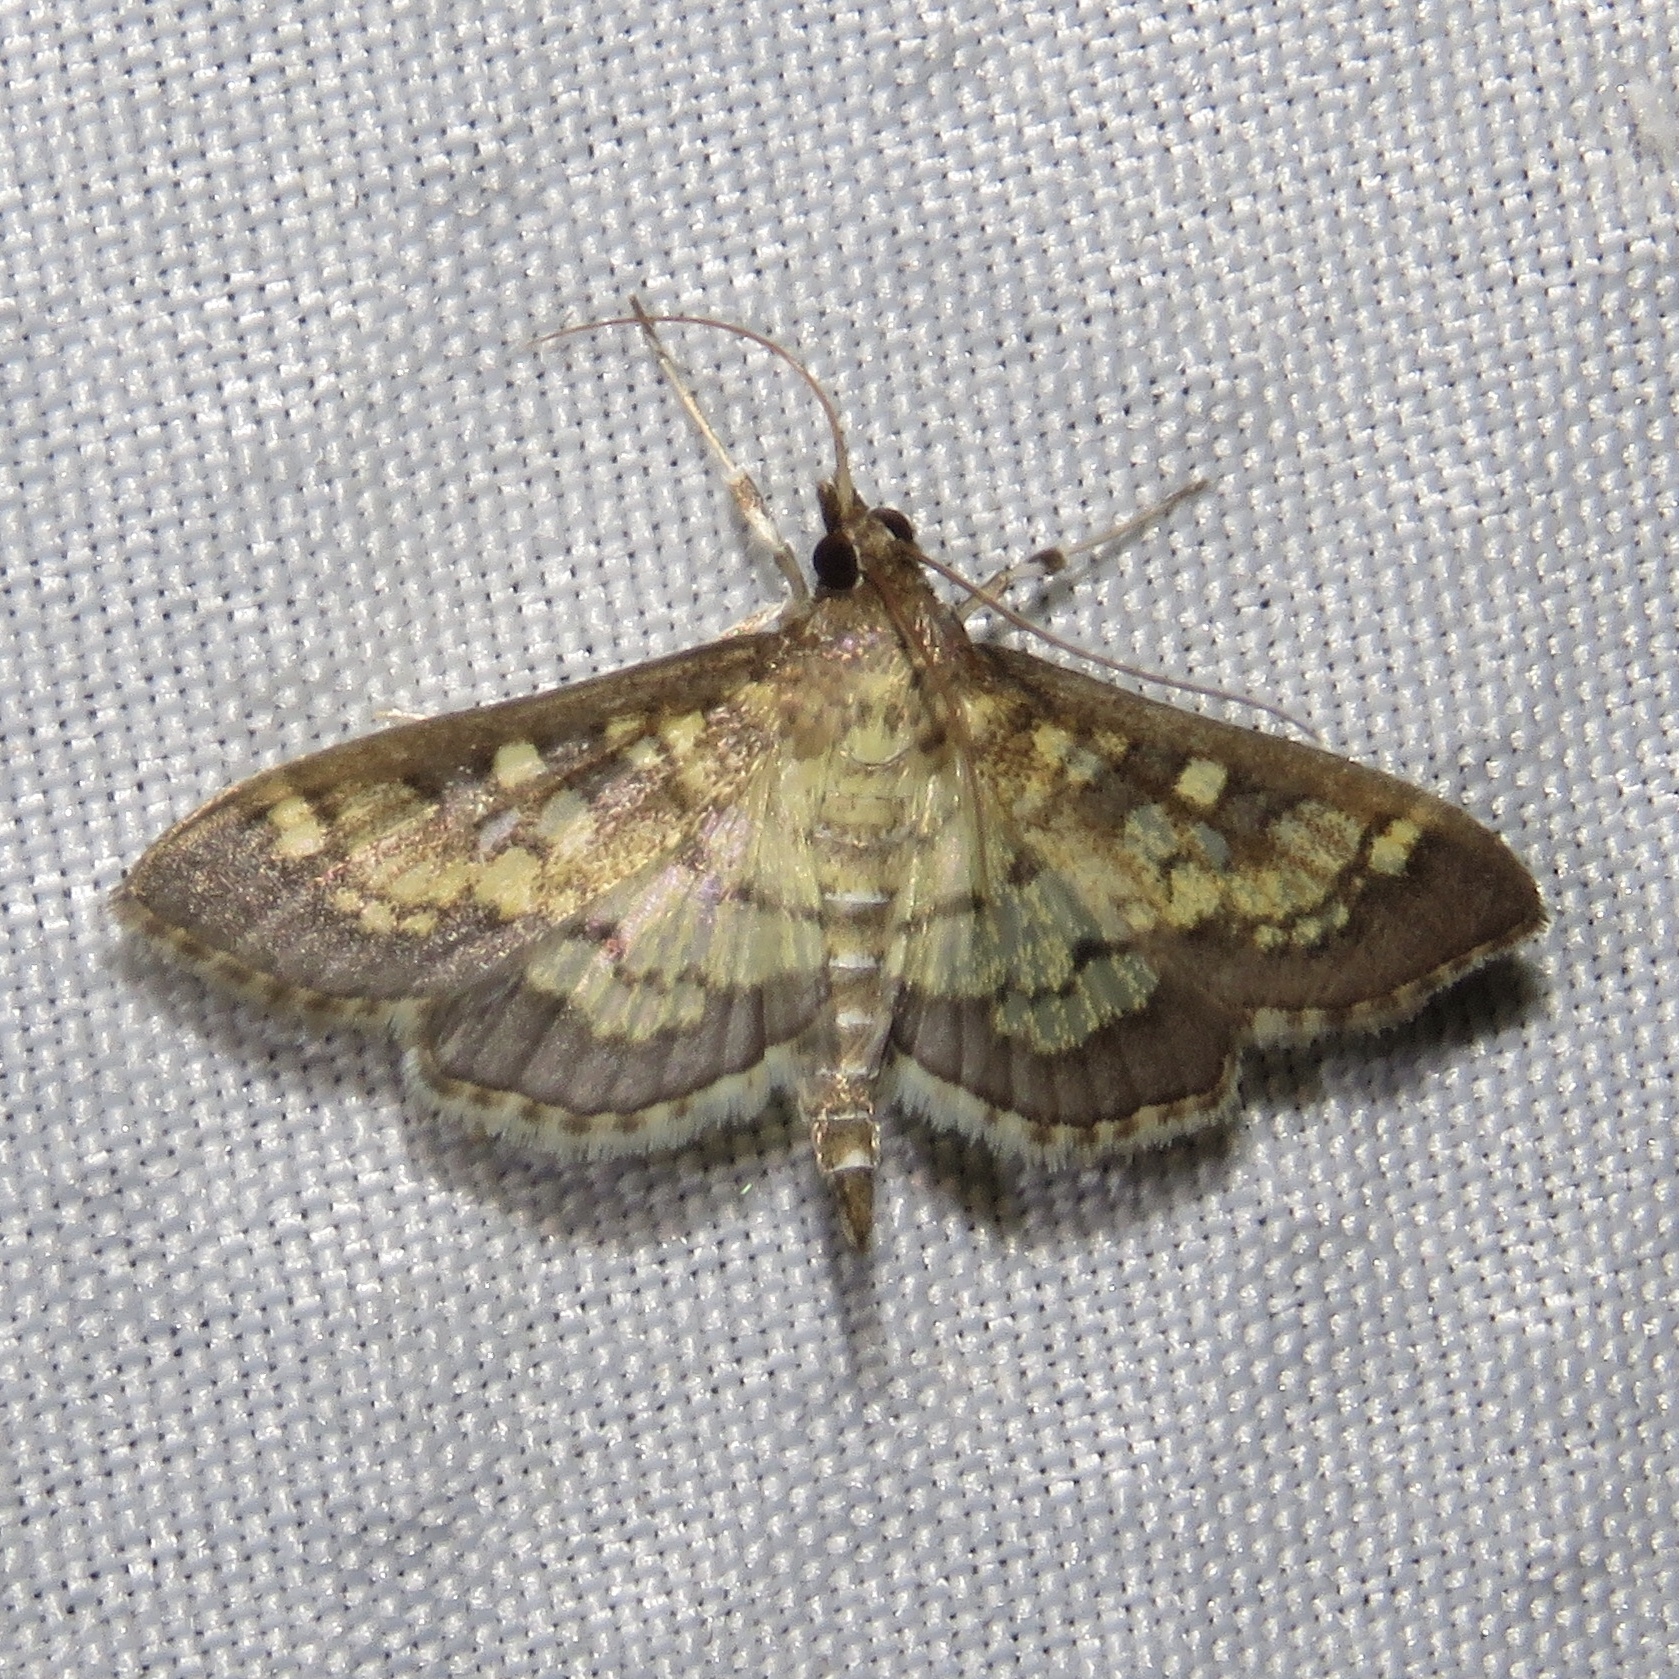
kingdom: Animalia
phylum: Arthropoda
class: Insecta
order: Lepidoptera
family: Crambidae
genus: Epipagis
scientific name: Epipagis adipaloides
